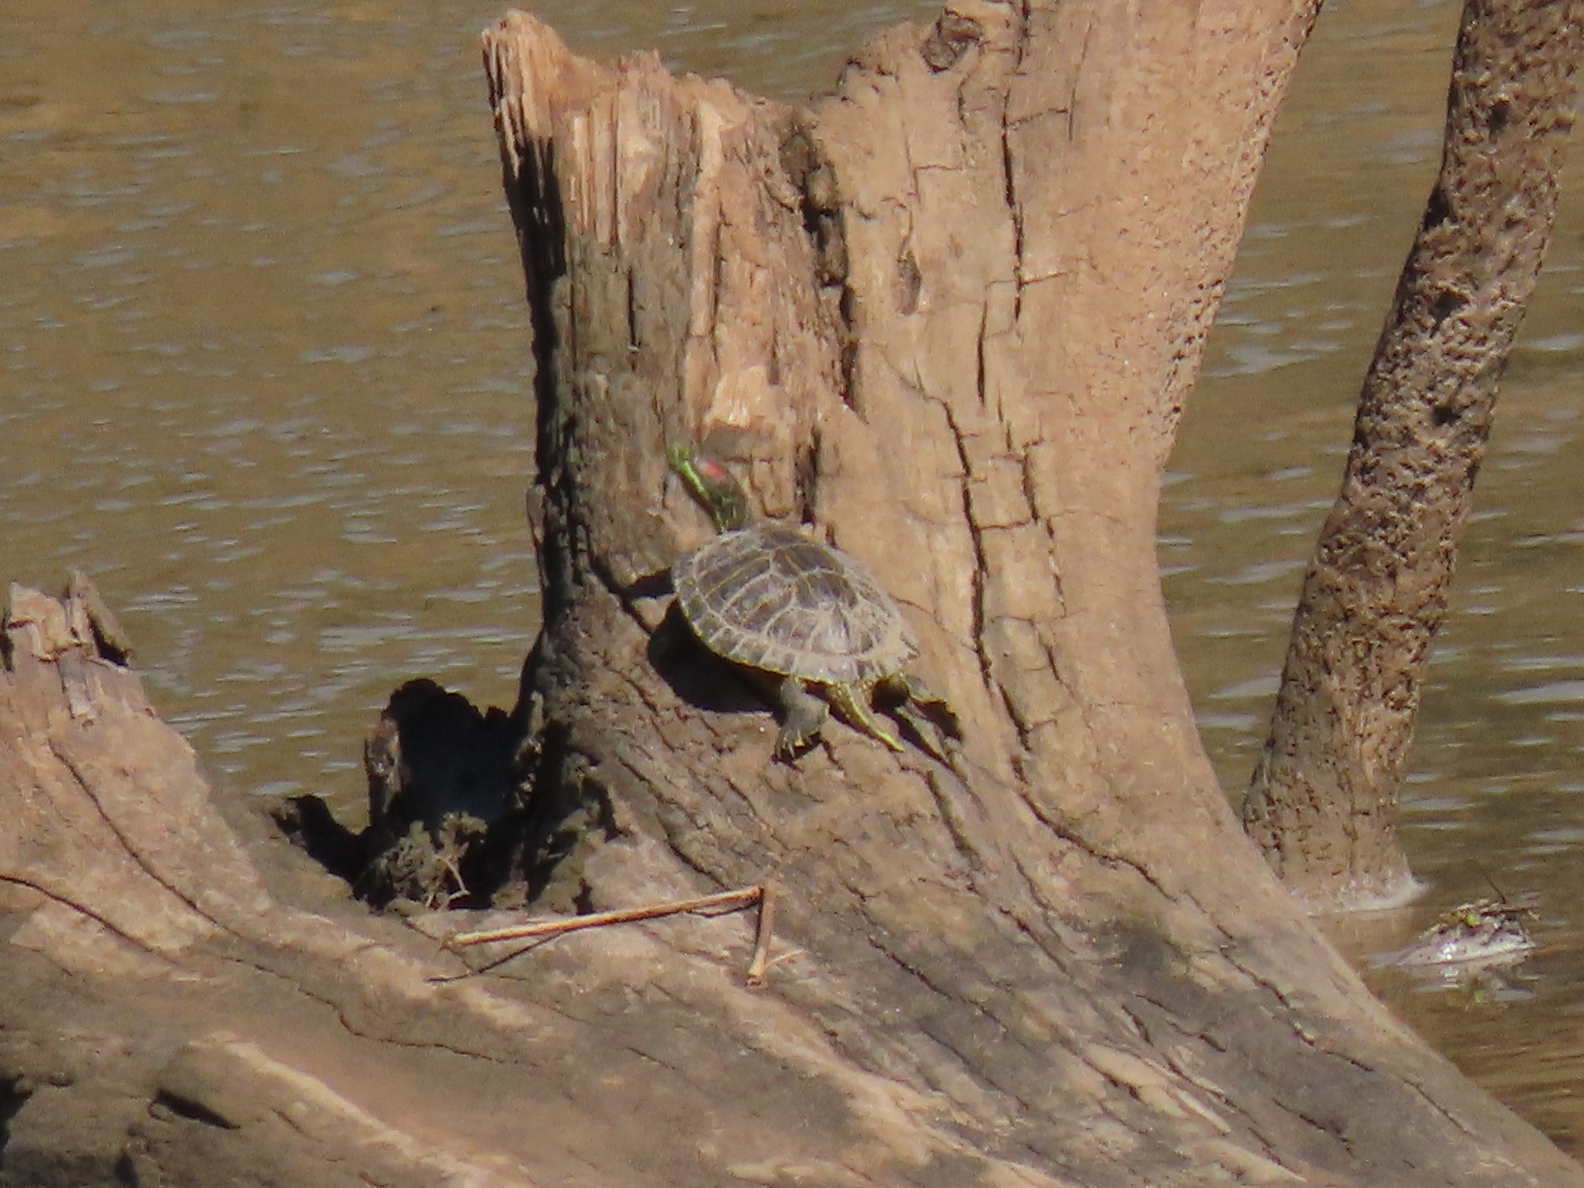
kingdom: Animalia
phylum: Chordata
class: Testudines
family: Emydidae
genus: Trachemys
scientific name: Trachemys scripta
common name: Slider
